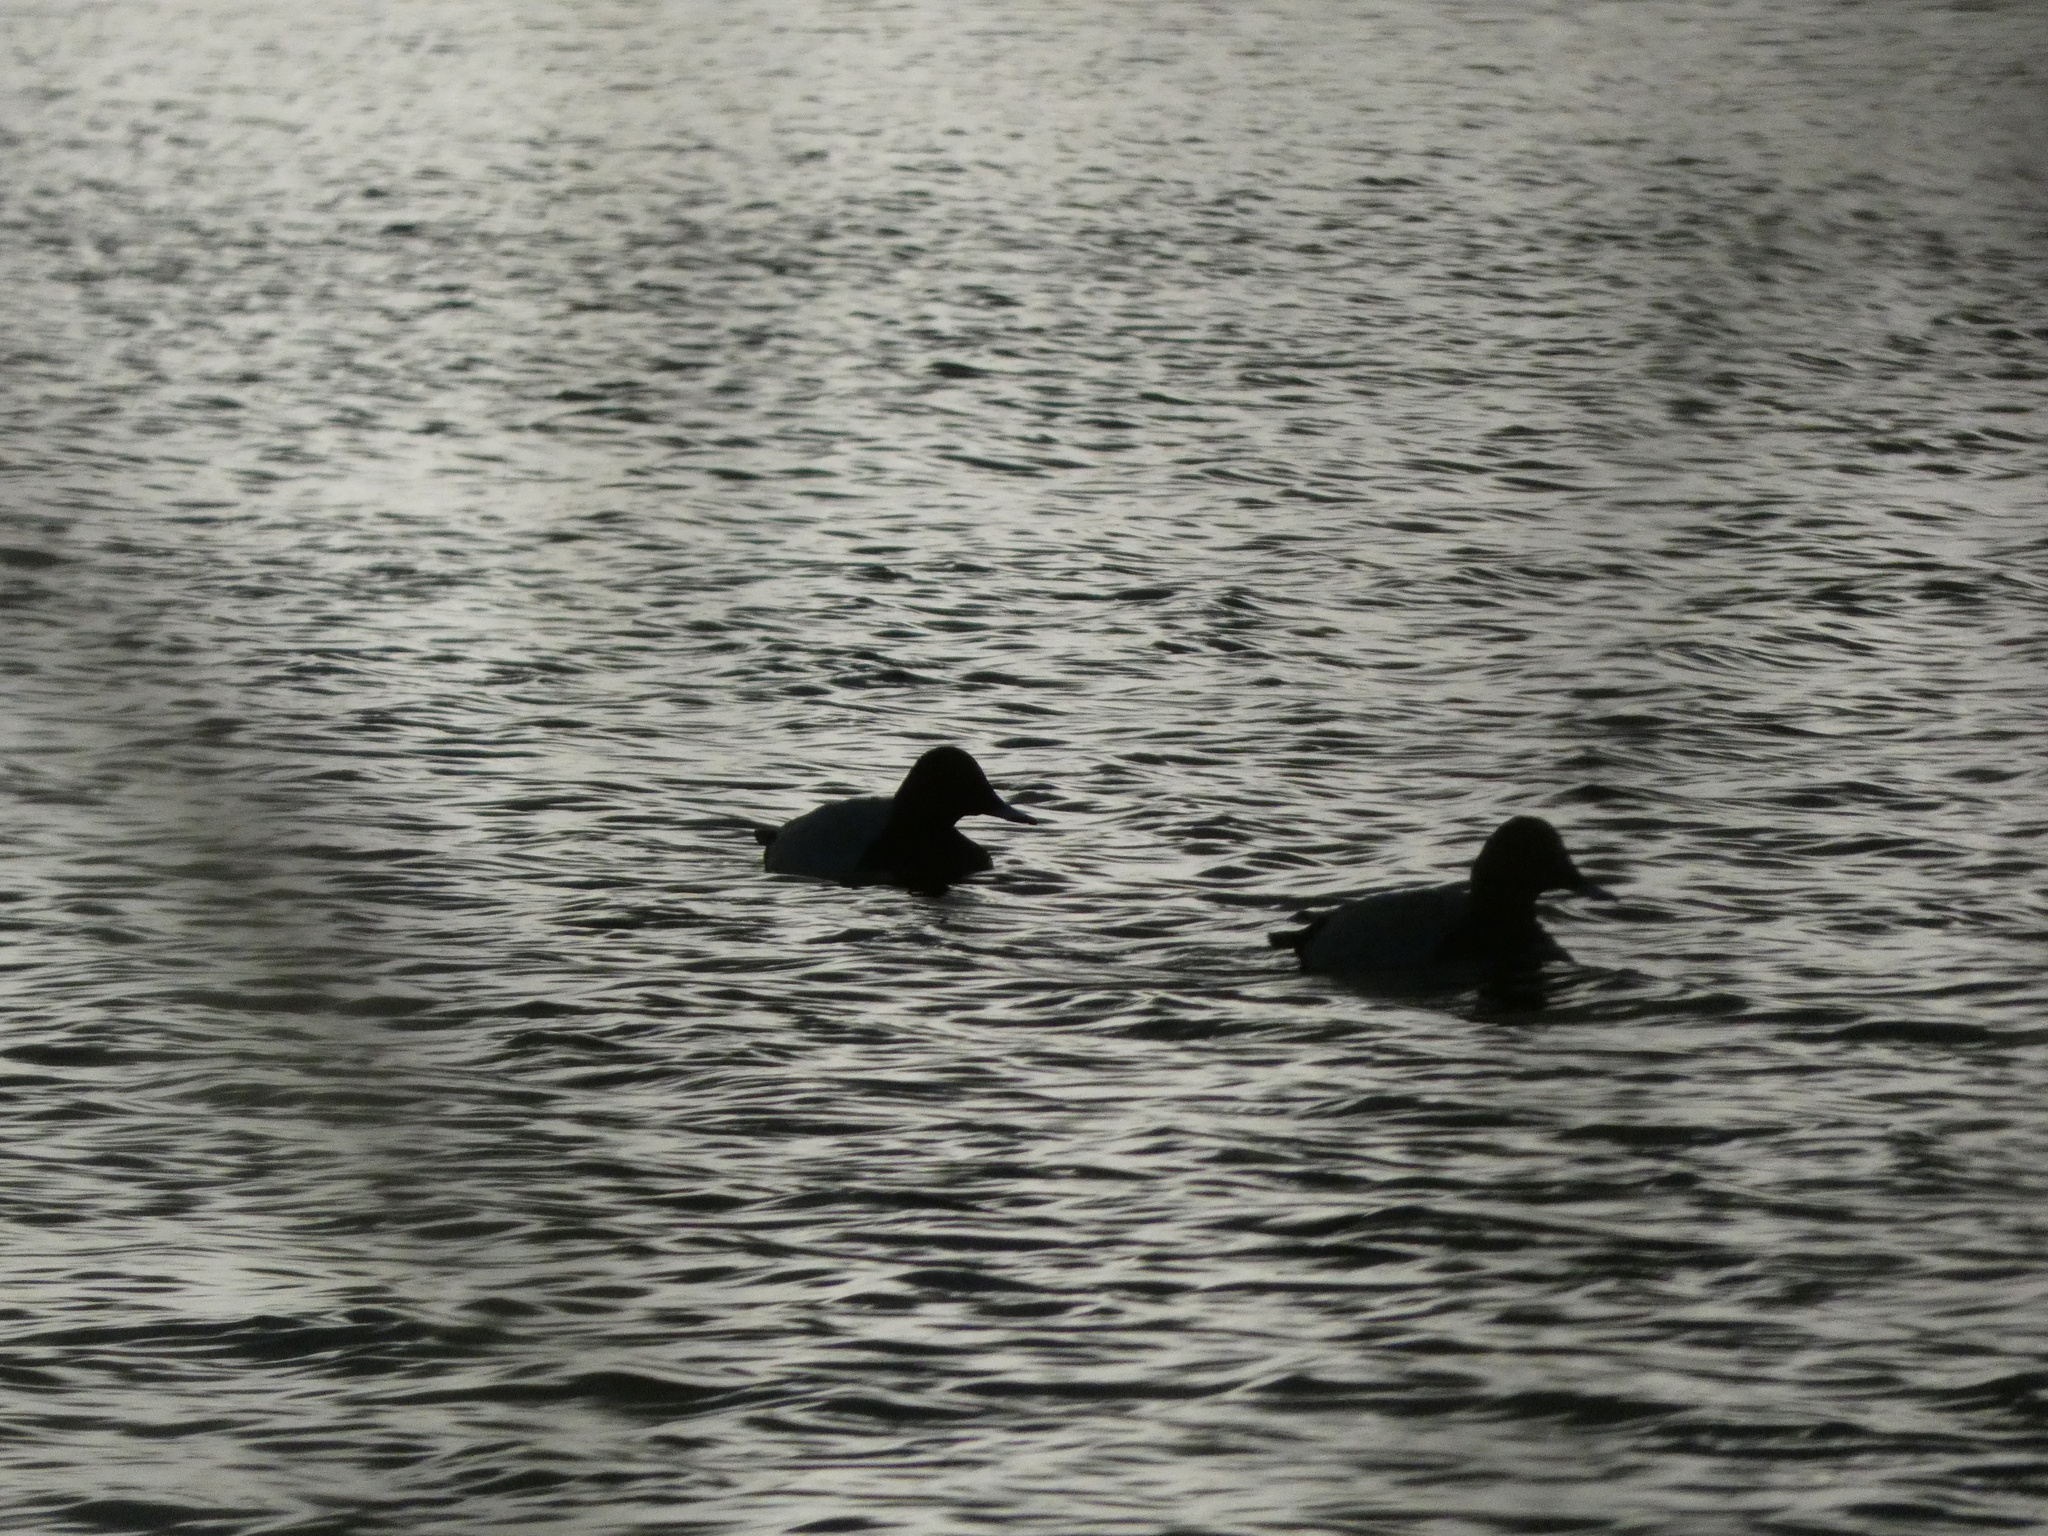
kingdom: Animalia
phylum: Chordata
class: Aves
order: Anseriformes
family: Anatidae
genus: Aythya
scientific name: Aythya ferina
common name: Common pochard
